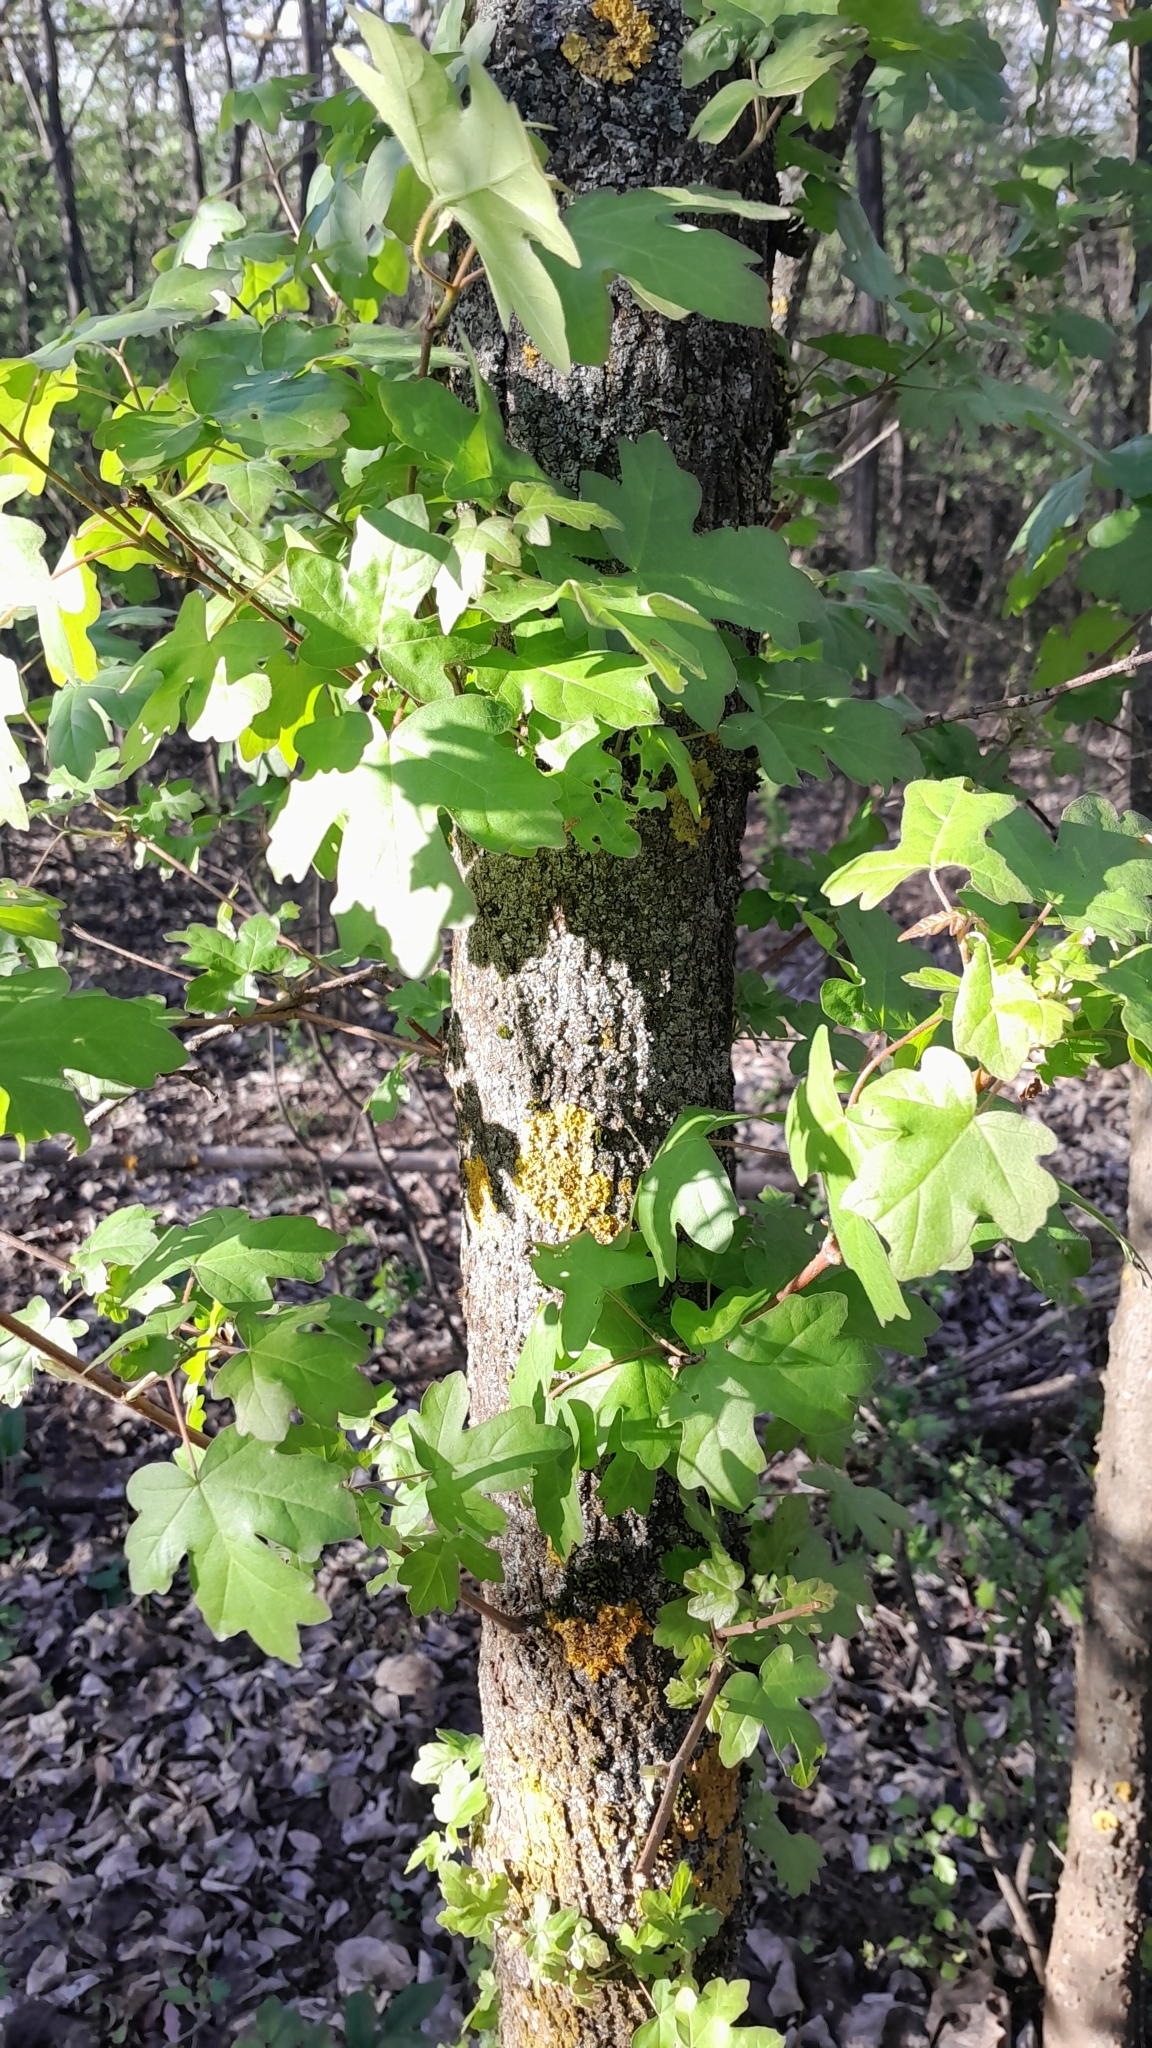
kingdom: Plantae
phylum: Tracheophyta
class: Magnoliopsida
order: Sapindales
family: Sapindaceae
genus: Acer
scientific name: Acer campestre
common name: Field maple
